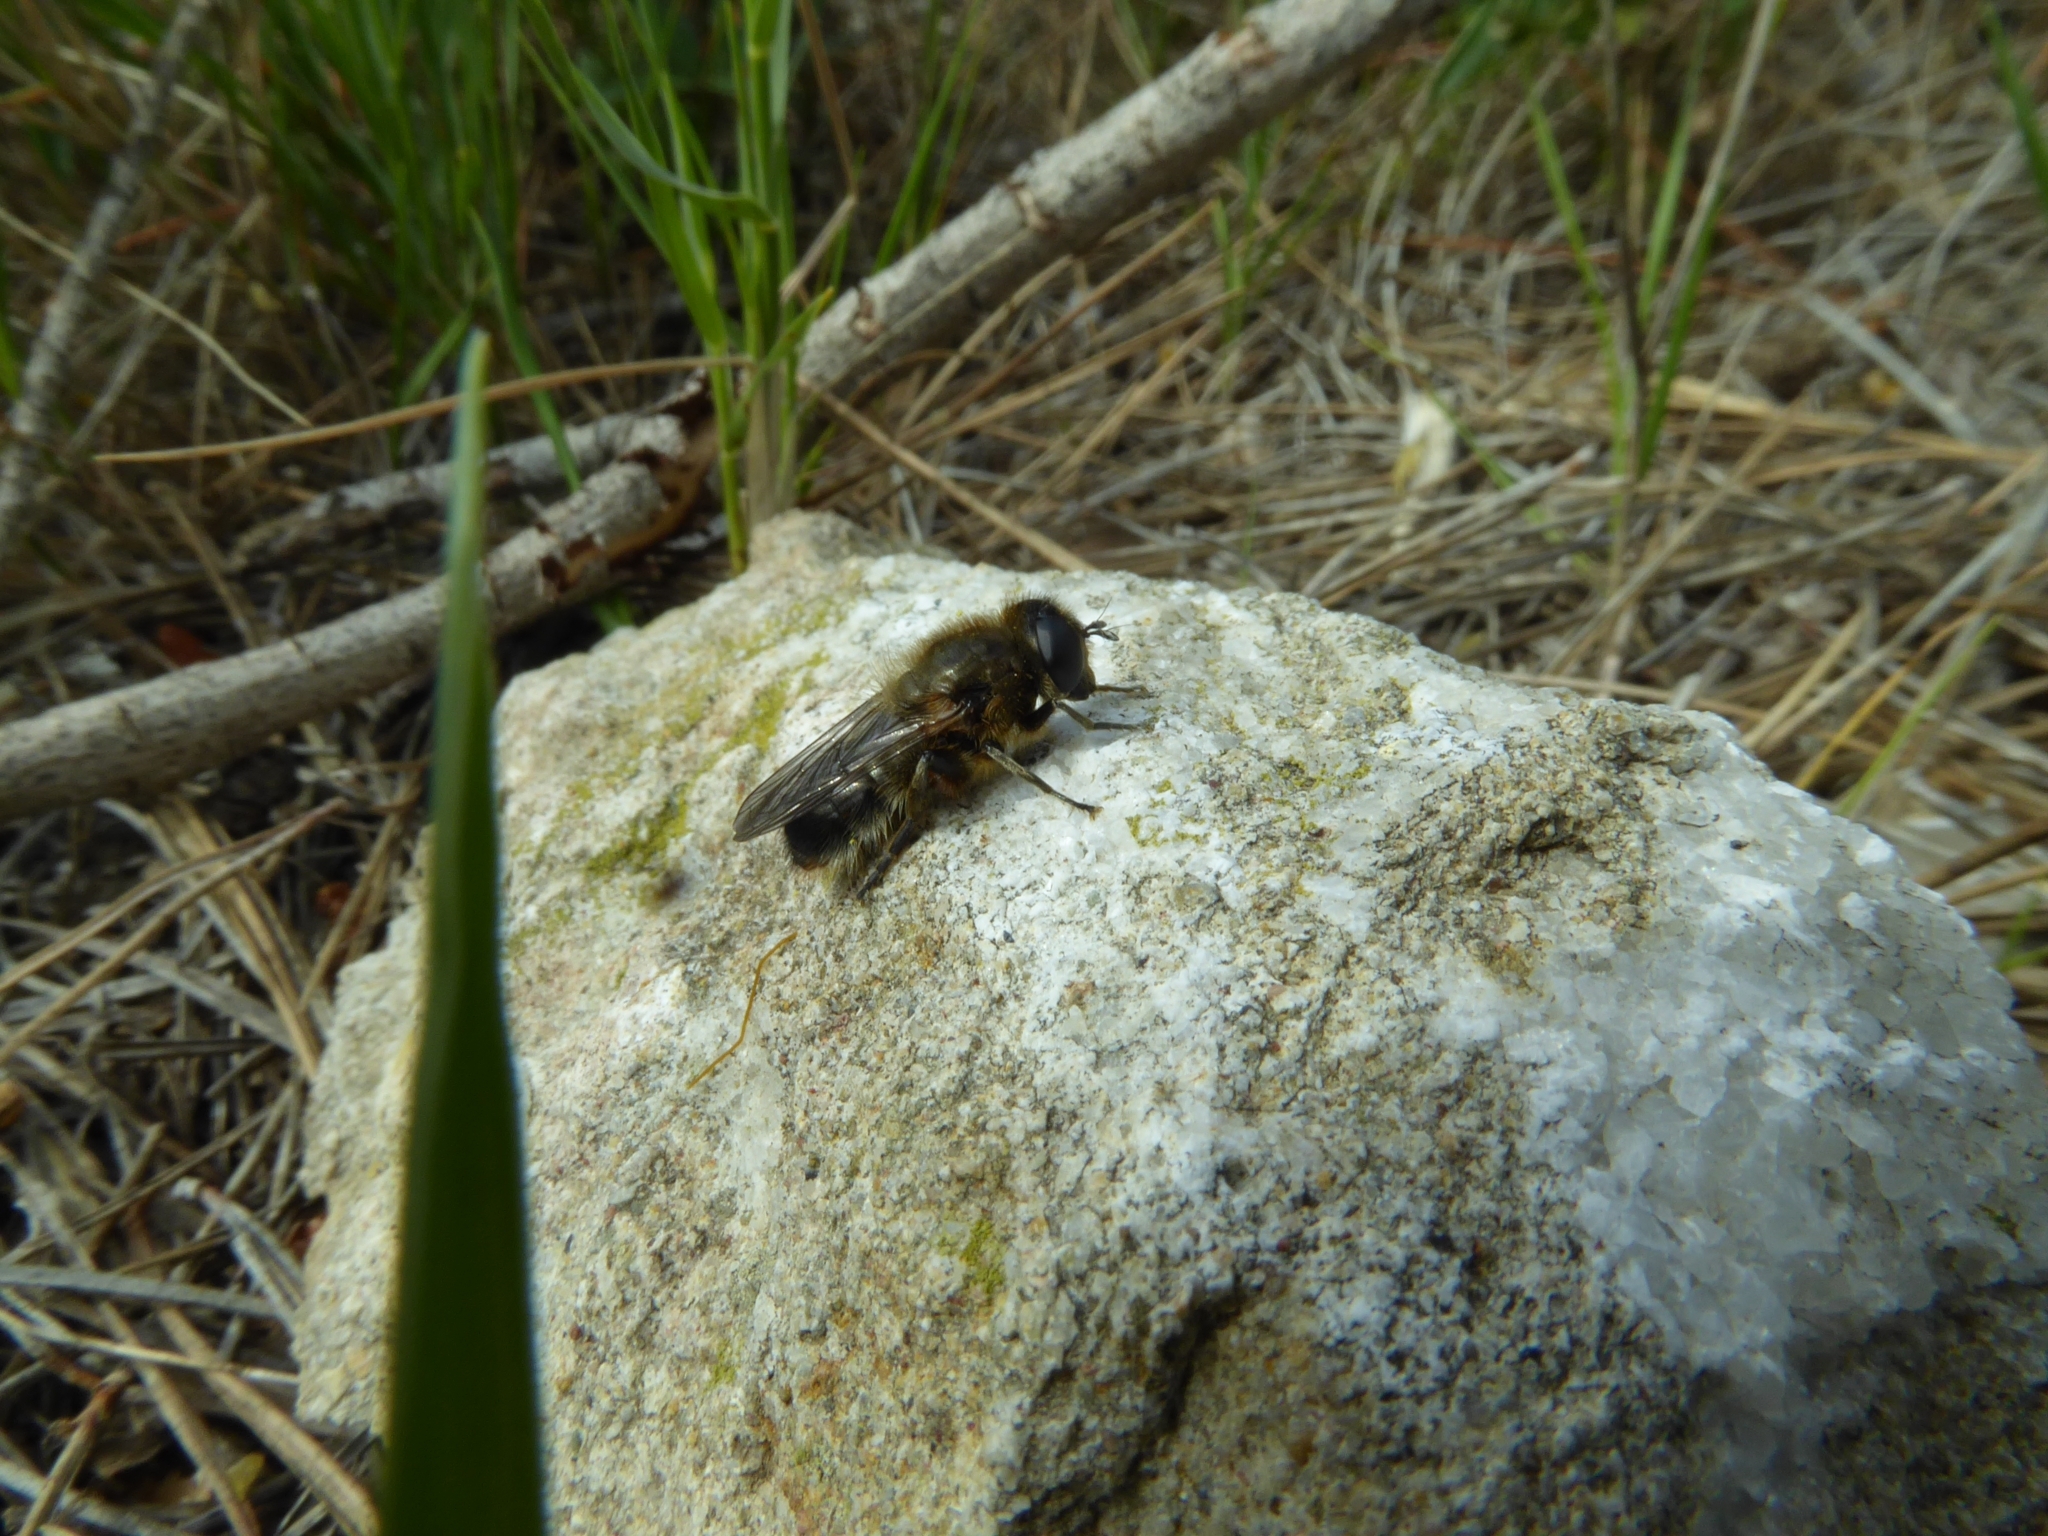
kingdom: Animalia
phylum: Arthropoda
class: Insecta
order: Diptera
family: Syrphidae
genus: Merodon
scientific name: Merodon setosus
